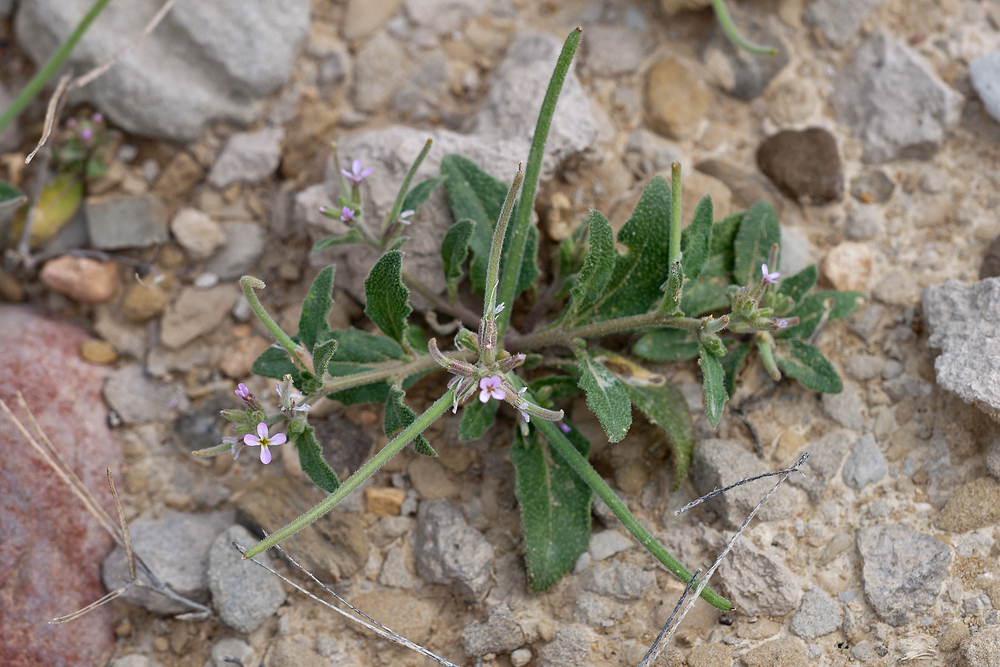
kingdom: Plantae
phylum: Tracheophyta
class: Magnoliopsida
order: Brassicales
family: Brassicaceae
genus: Strigosella
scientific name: Strigosella africana
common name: African mustard
